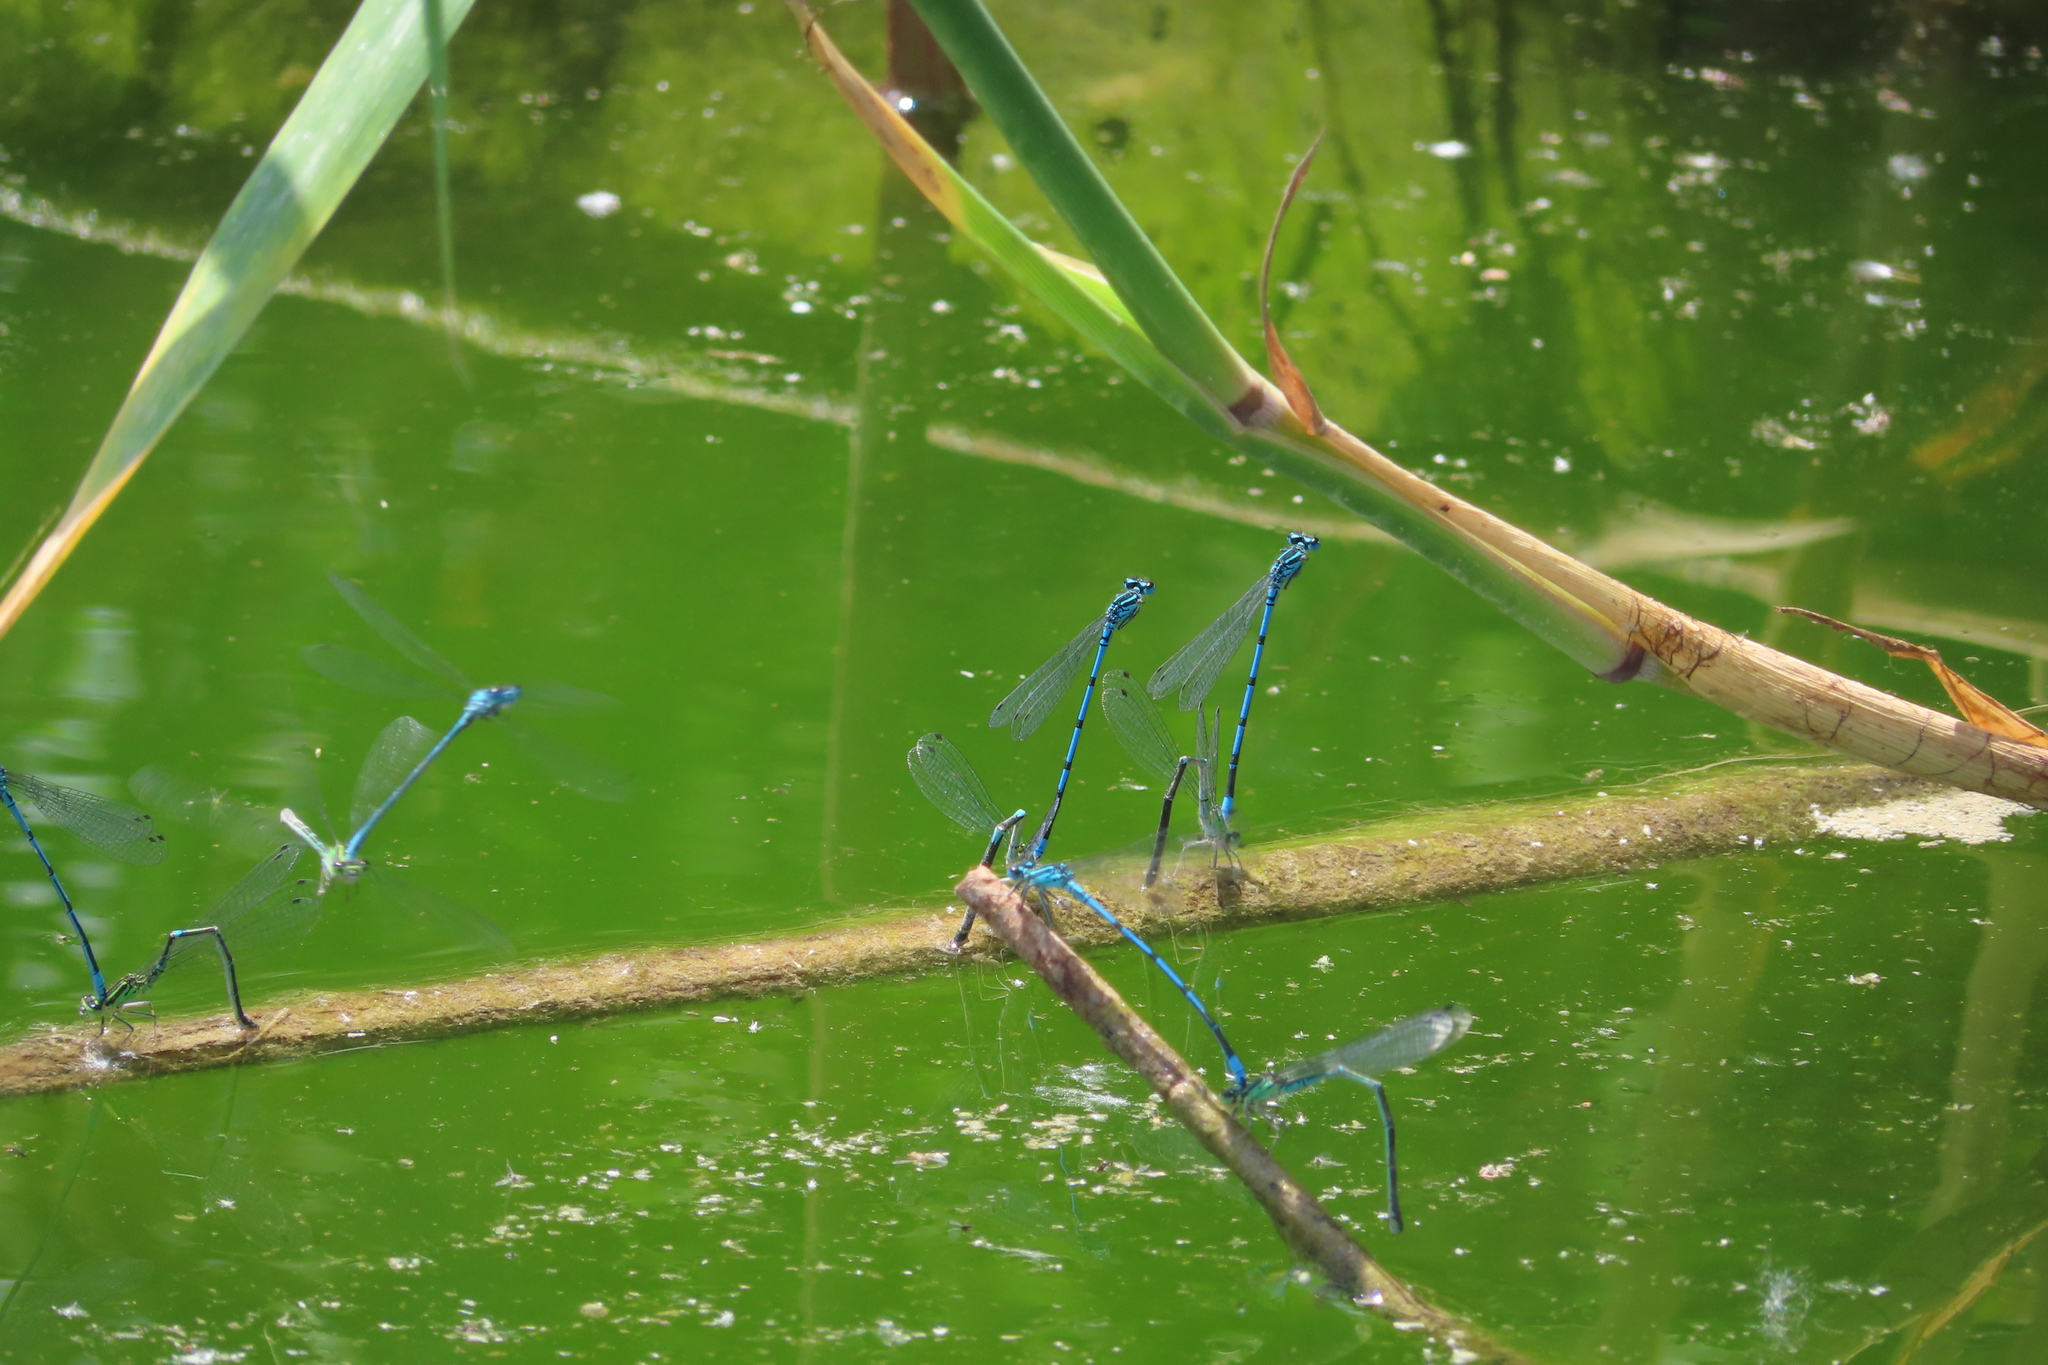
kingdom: Animalia
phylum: Arthropoda
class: Insecta
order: Odonata
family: Coenagrionidae
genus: Coenagrion
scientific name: Coenagrion puella
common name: Azure damselfly
